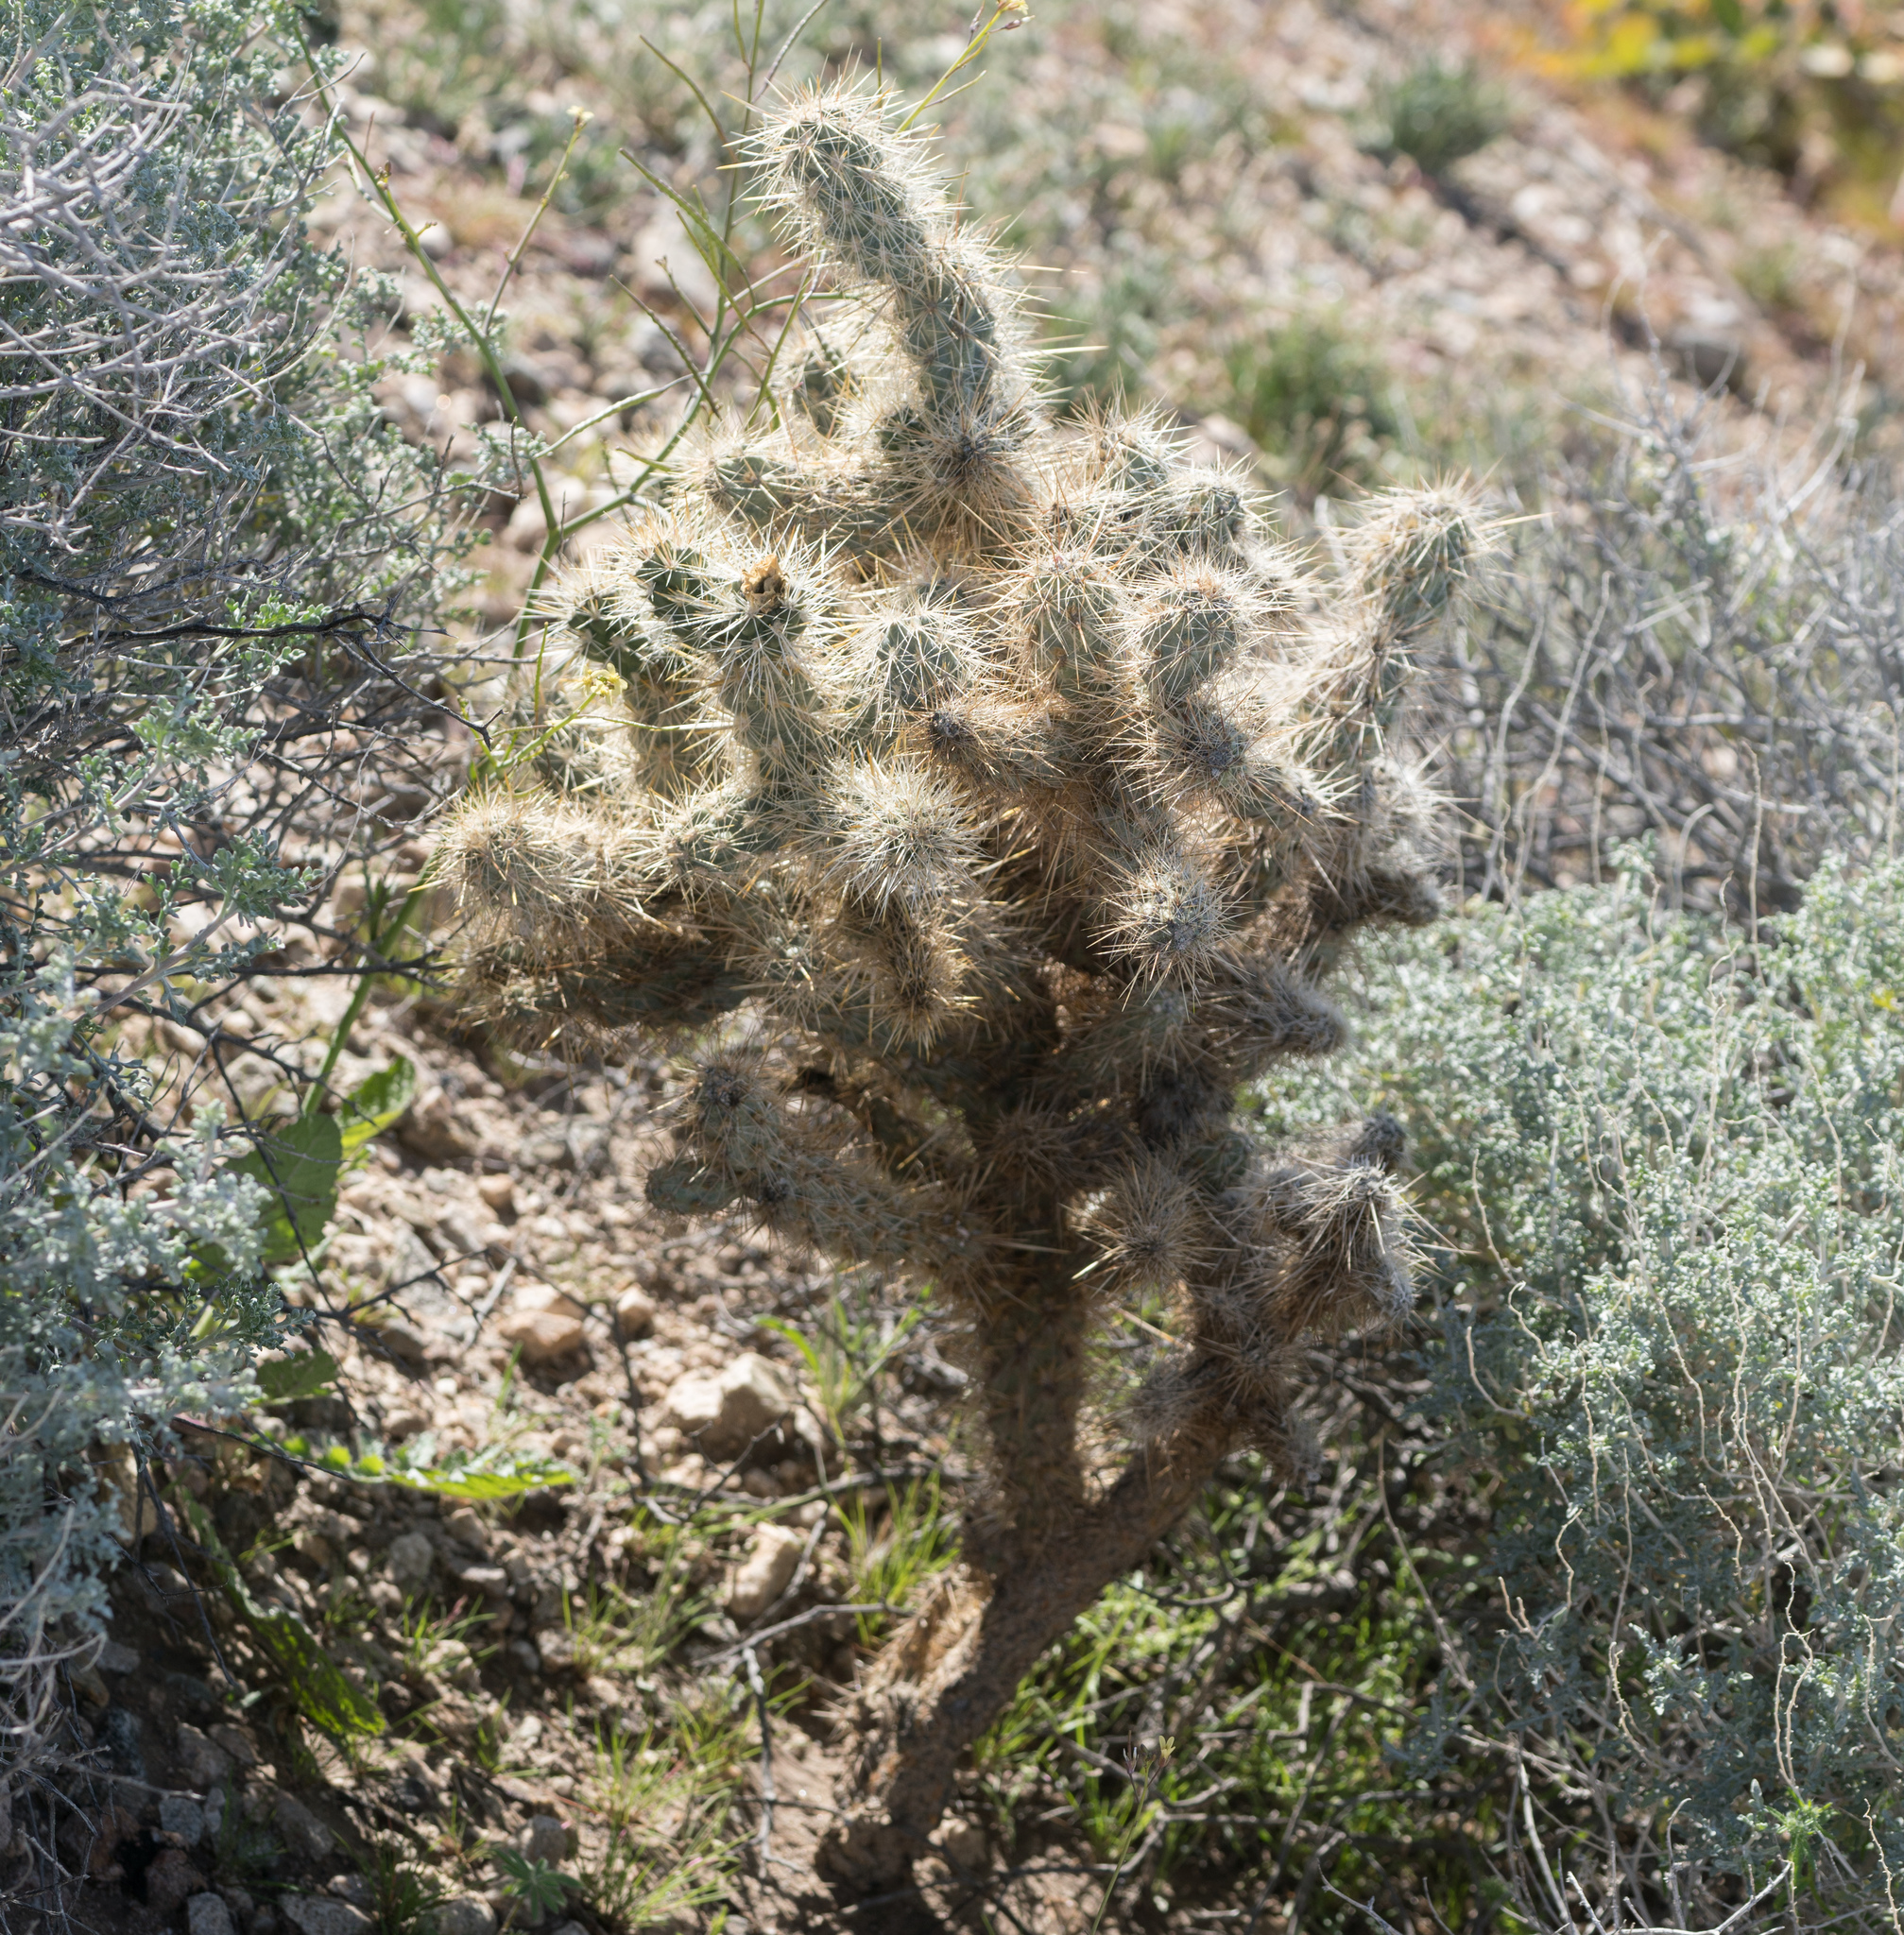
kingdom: Plantae
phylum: Tracheophyta
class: Magnoliopsida
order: Caryophyllales
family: Cactaceae
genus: Cylindropuntia
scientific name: Cylindropuntia echinocarpa
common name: Ground cholla
